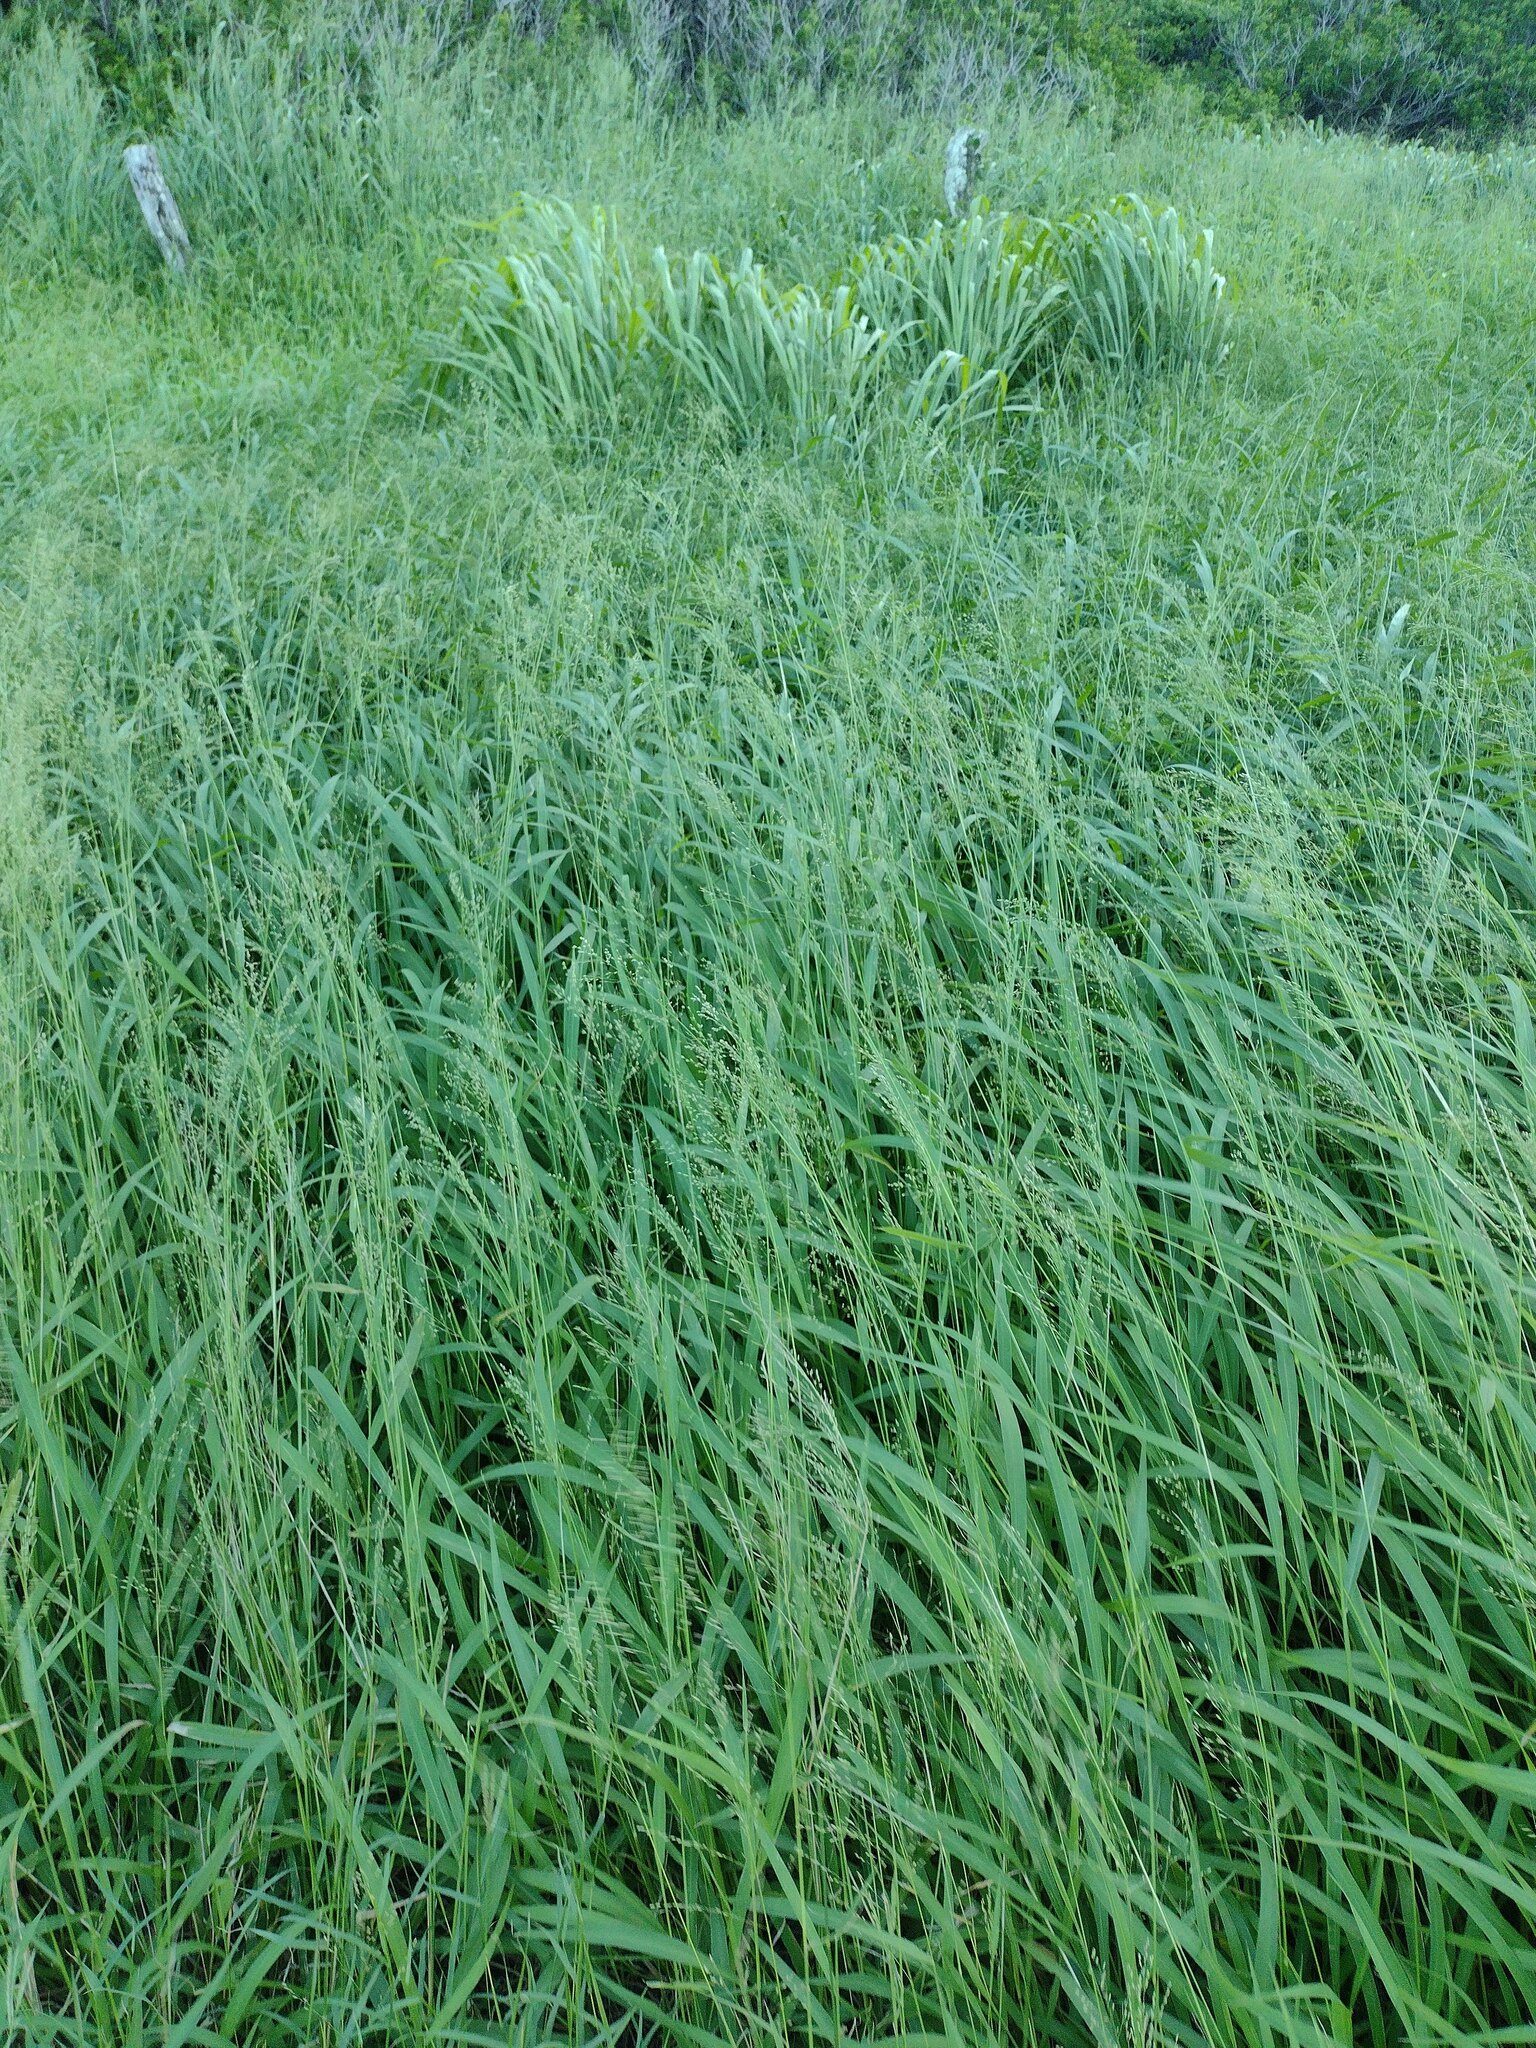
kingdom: Plantae
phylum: Tracheophyta
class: Liliopsida
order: Poales
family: Poaceae
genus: Megathyrsus
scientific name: Megathyrsus maximus
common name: Guineagrass
